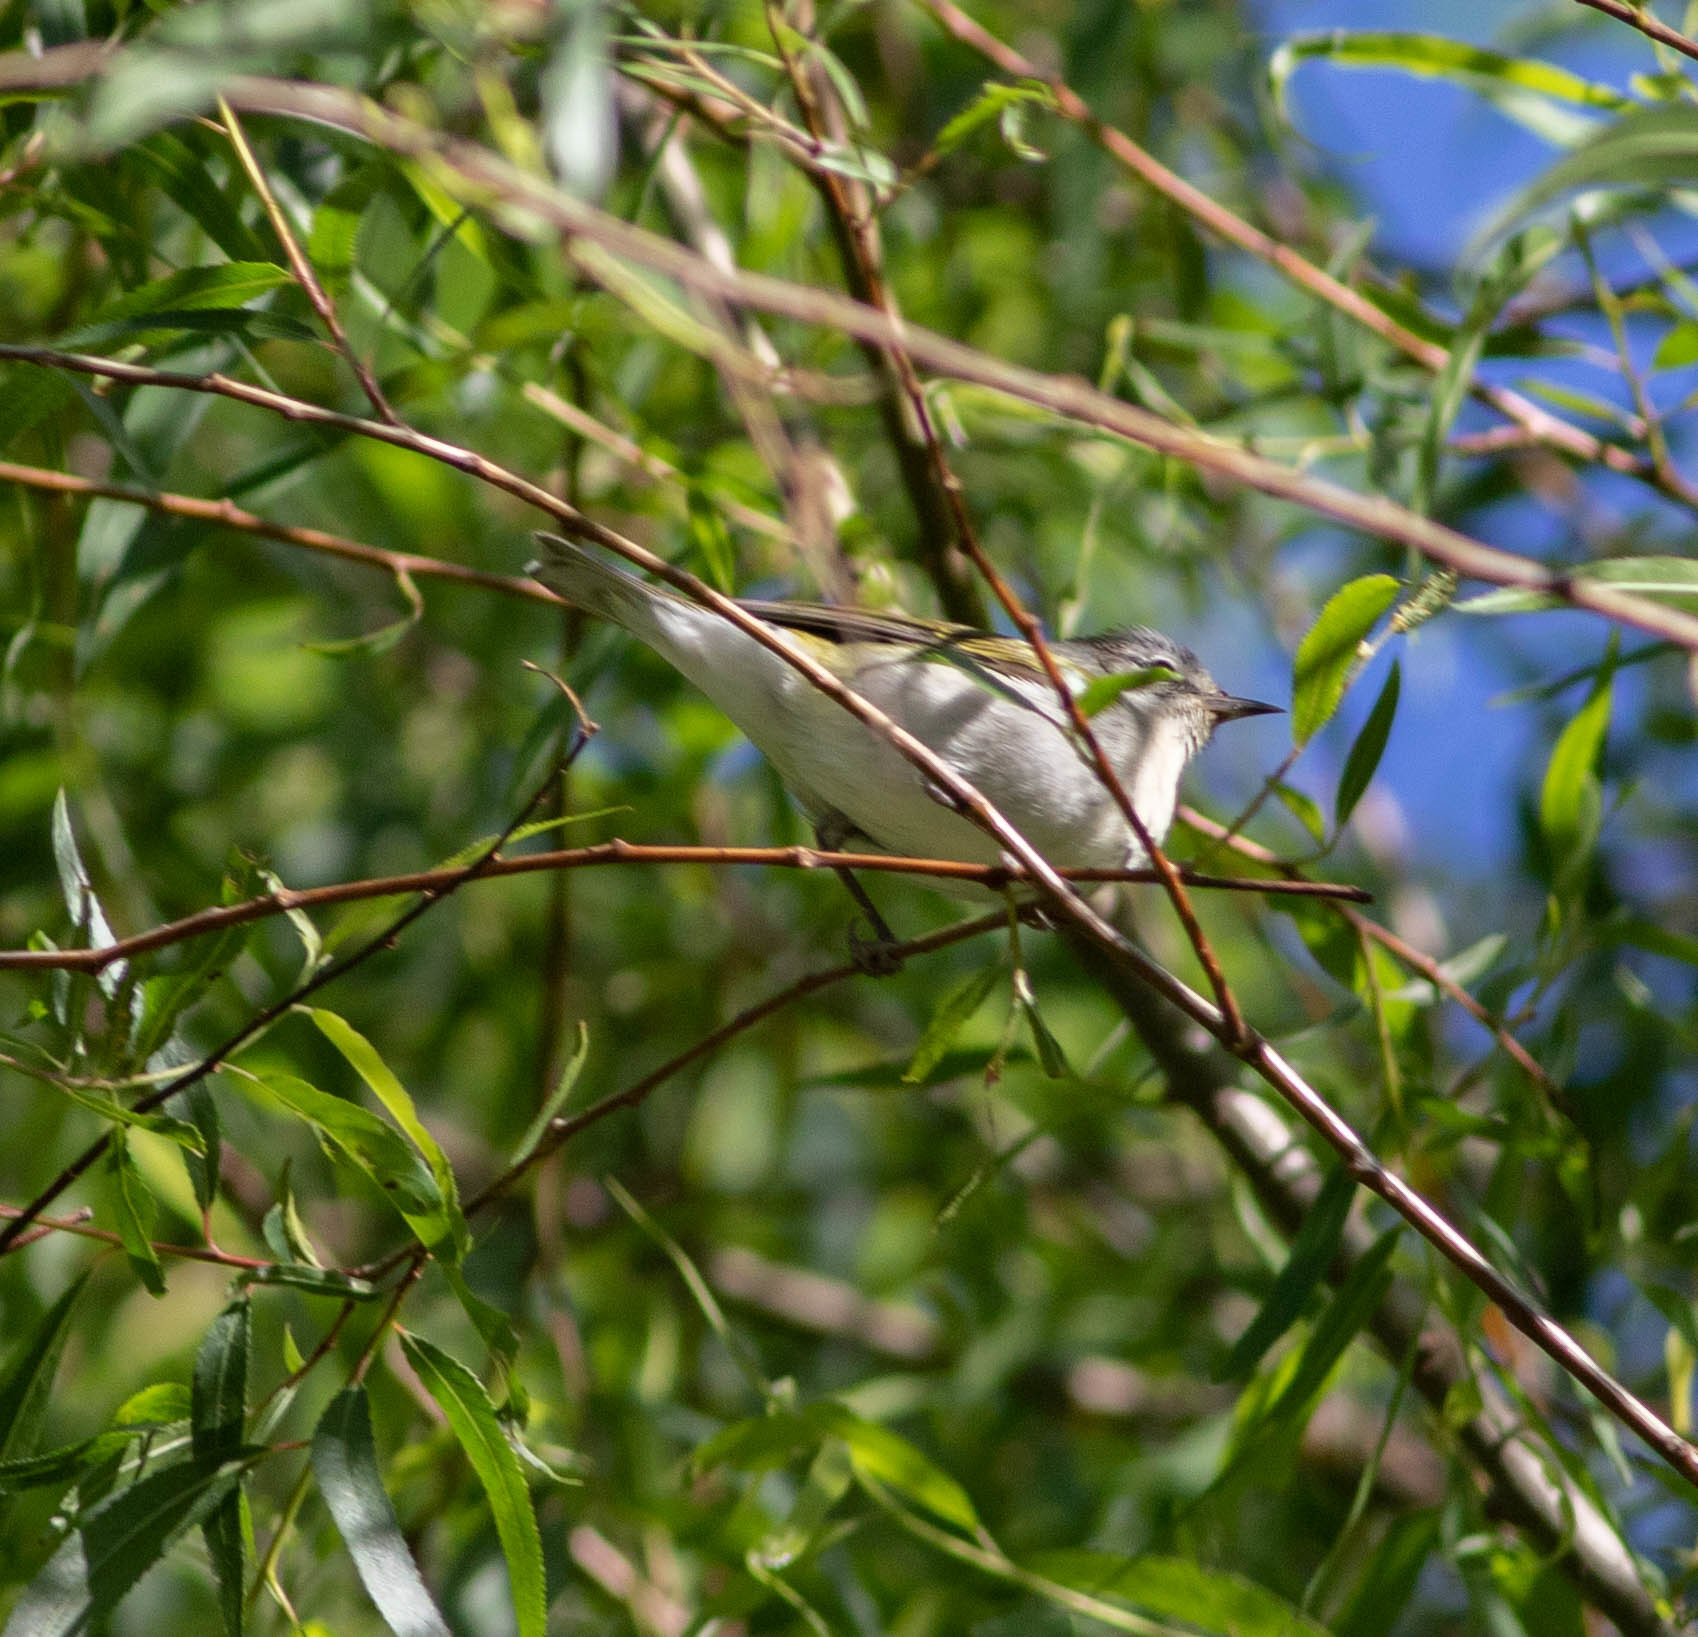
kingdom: Animalia
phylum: Chordata
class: Aves
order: Passeriformes
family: Parulidae
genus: Leiothlypis
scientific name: Leiothlypis peregrina
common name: Tennessee warbler
